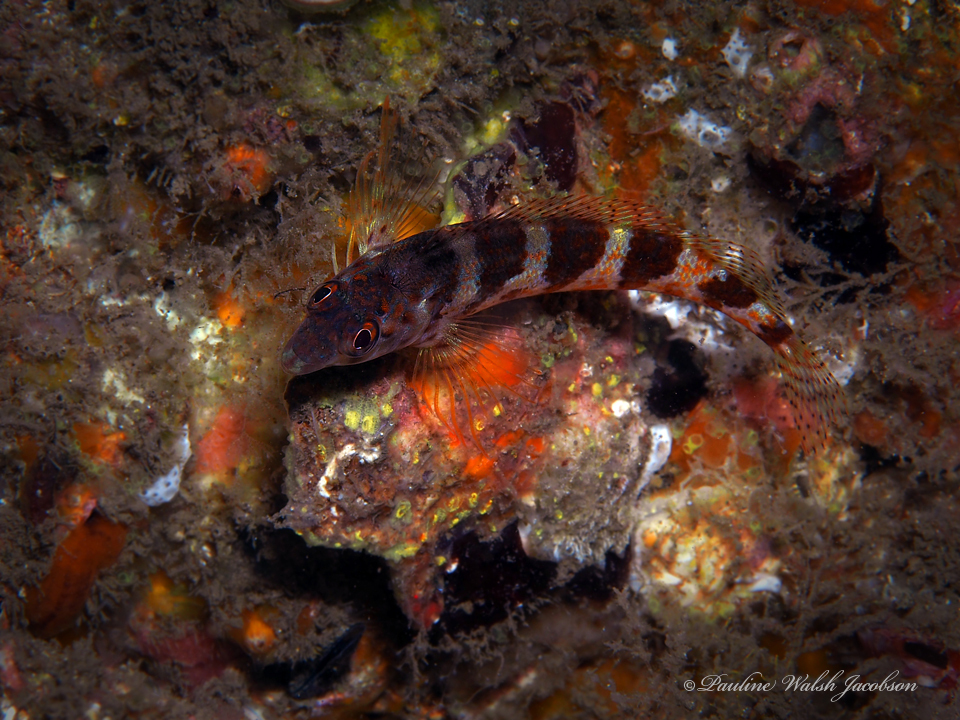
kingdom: Animalia
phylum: Chordata
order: Perciformes
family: Labrisomidae
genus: Malacoctenus
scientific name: Malacoctenus triangulatus
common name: Saddled blenny
